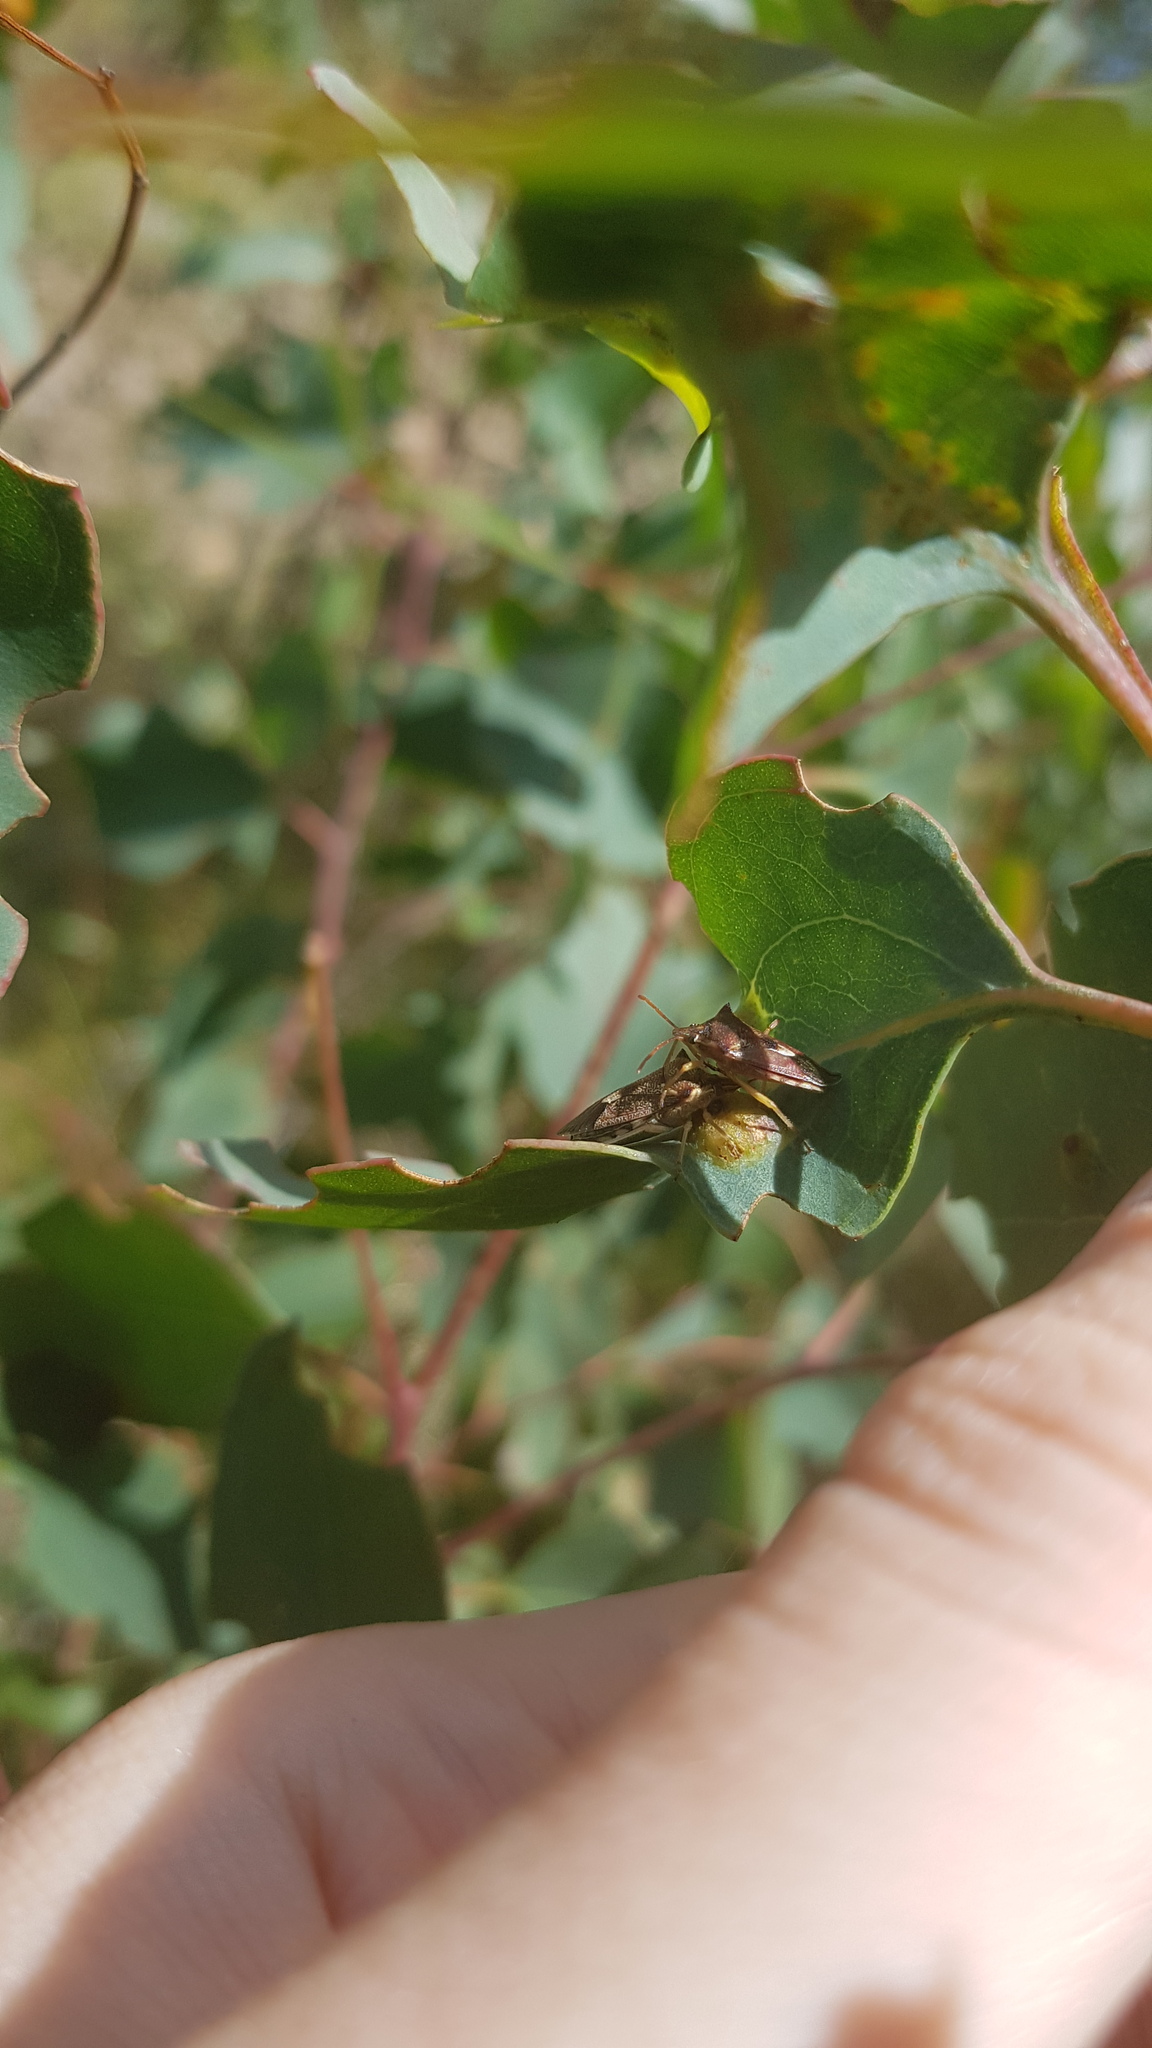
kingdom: Animalia
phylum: Arthropoda
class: Insecta
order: Hemiptera
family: Pentatomidae
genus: Oechalia
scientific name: Oechalia schellenbergii
